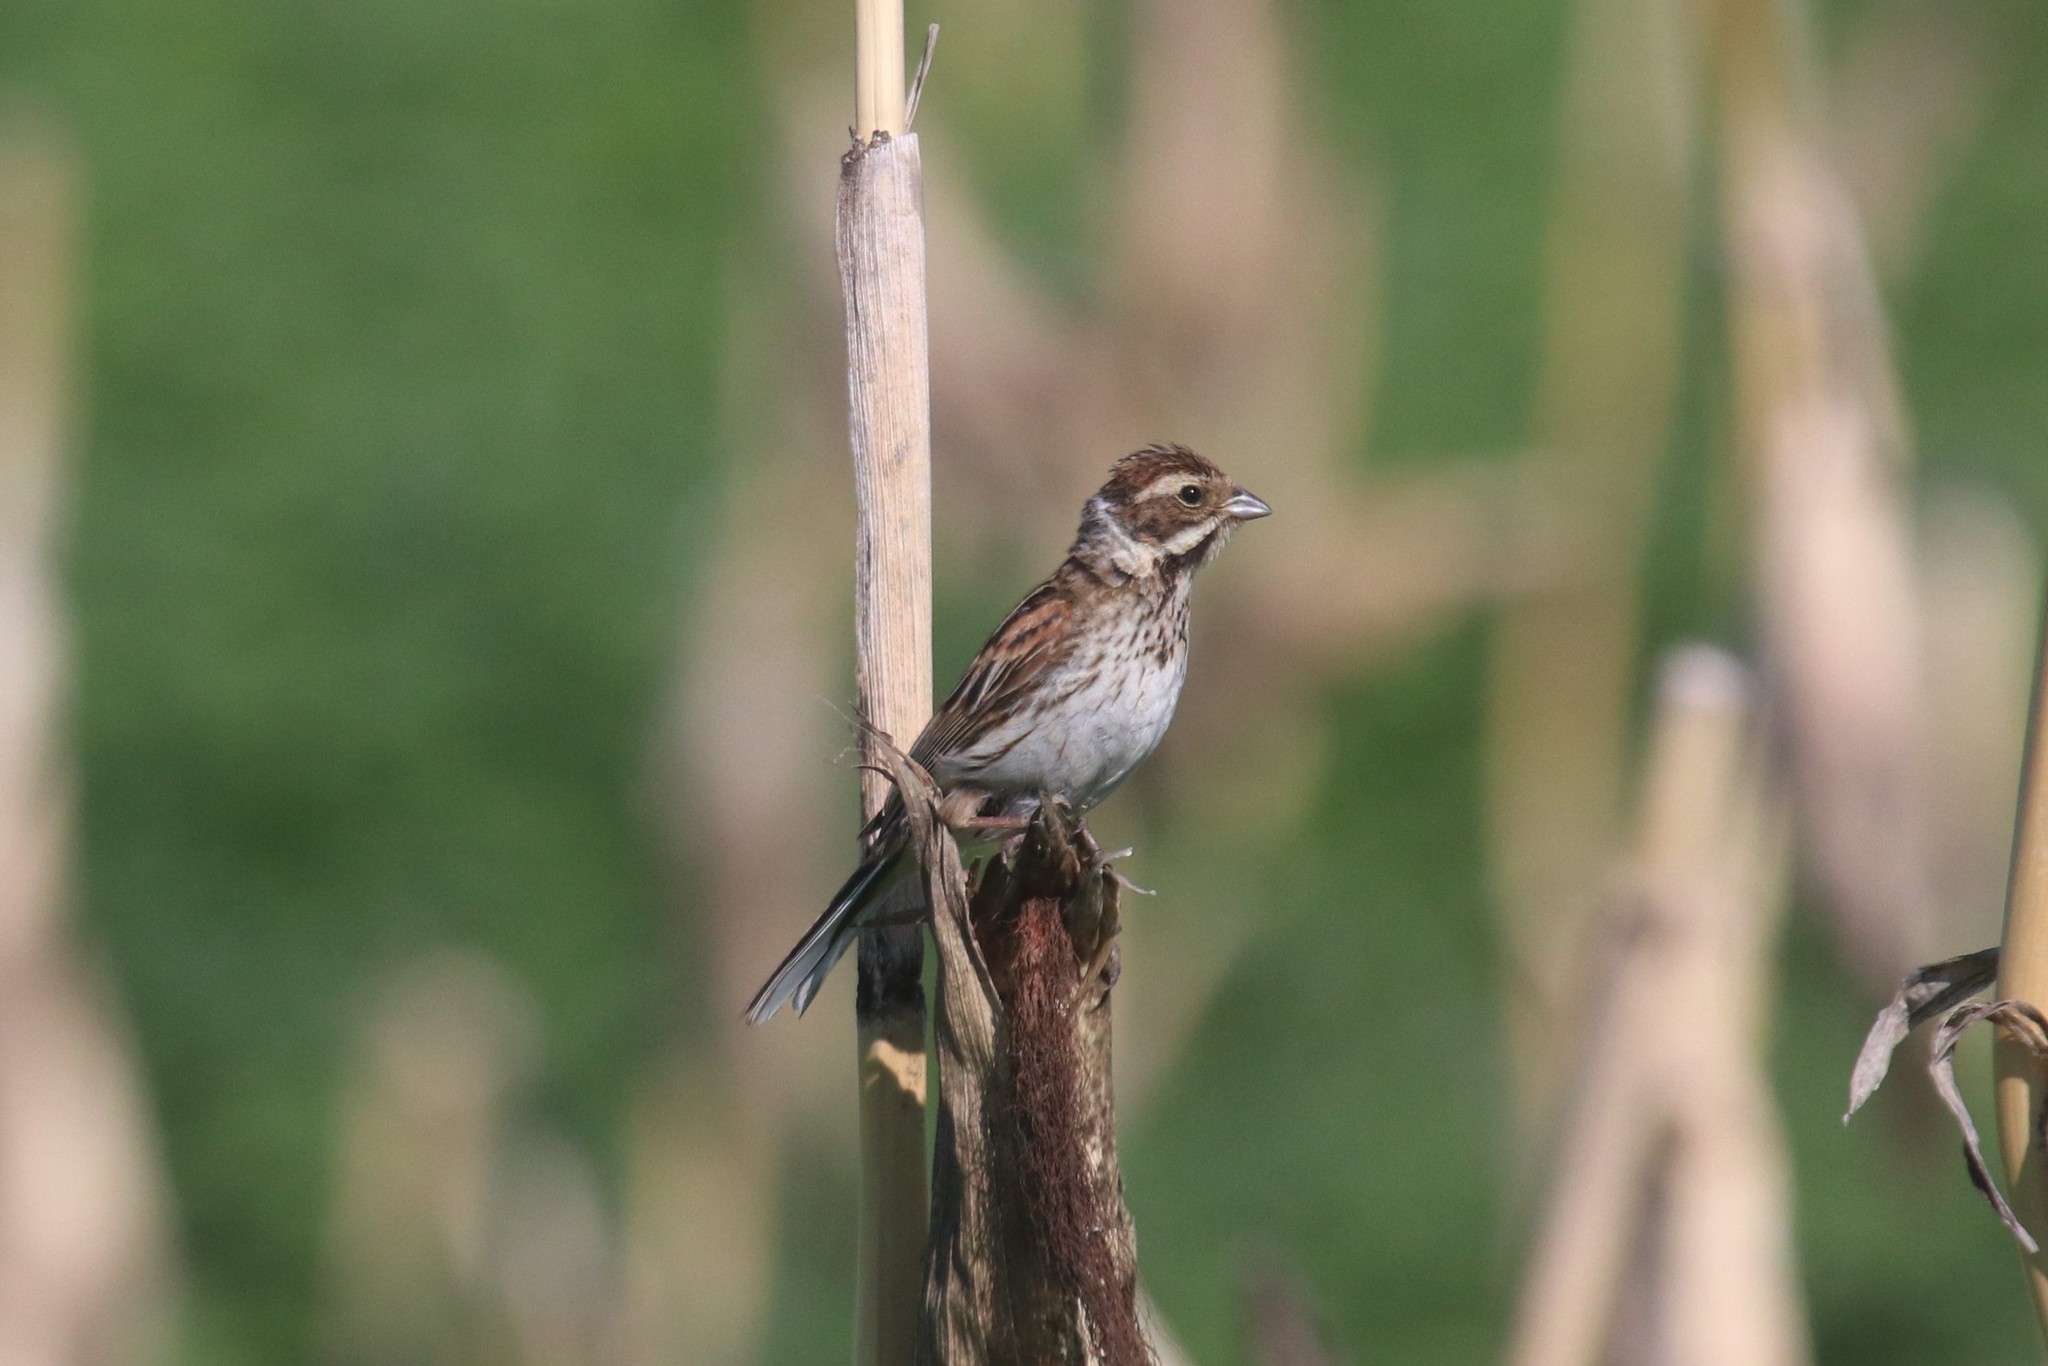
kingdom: Animalia
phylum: Chordata
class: Aves
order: Passeriformes
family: Emberizidae
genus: Emberiza
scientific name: Emberiza schoeniclus
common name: Reed bunting
